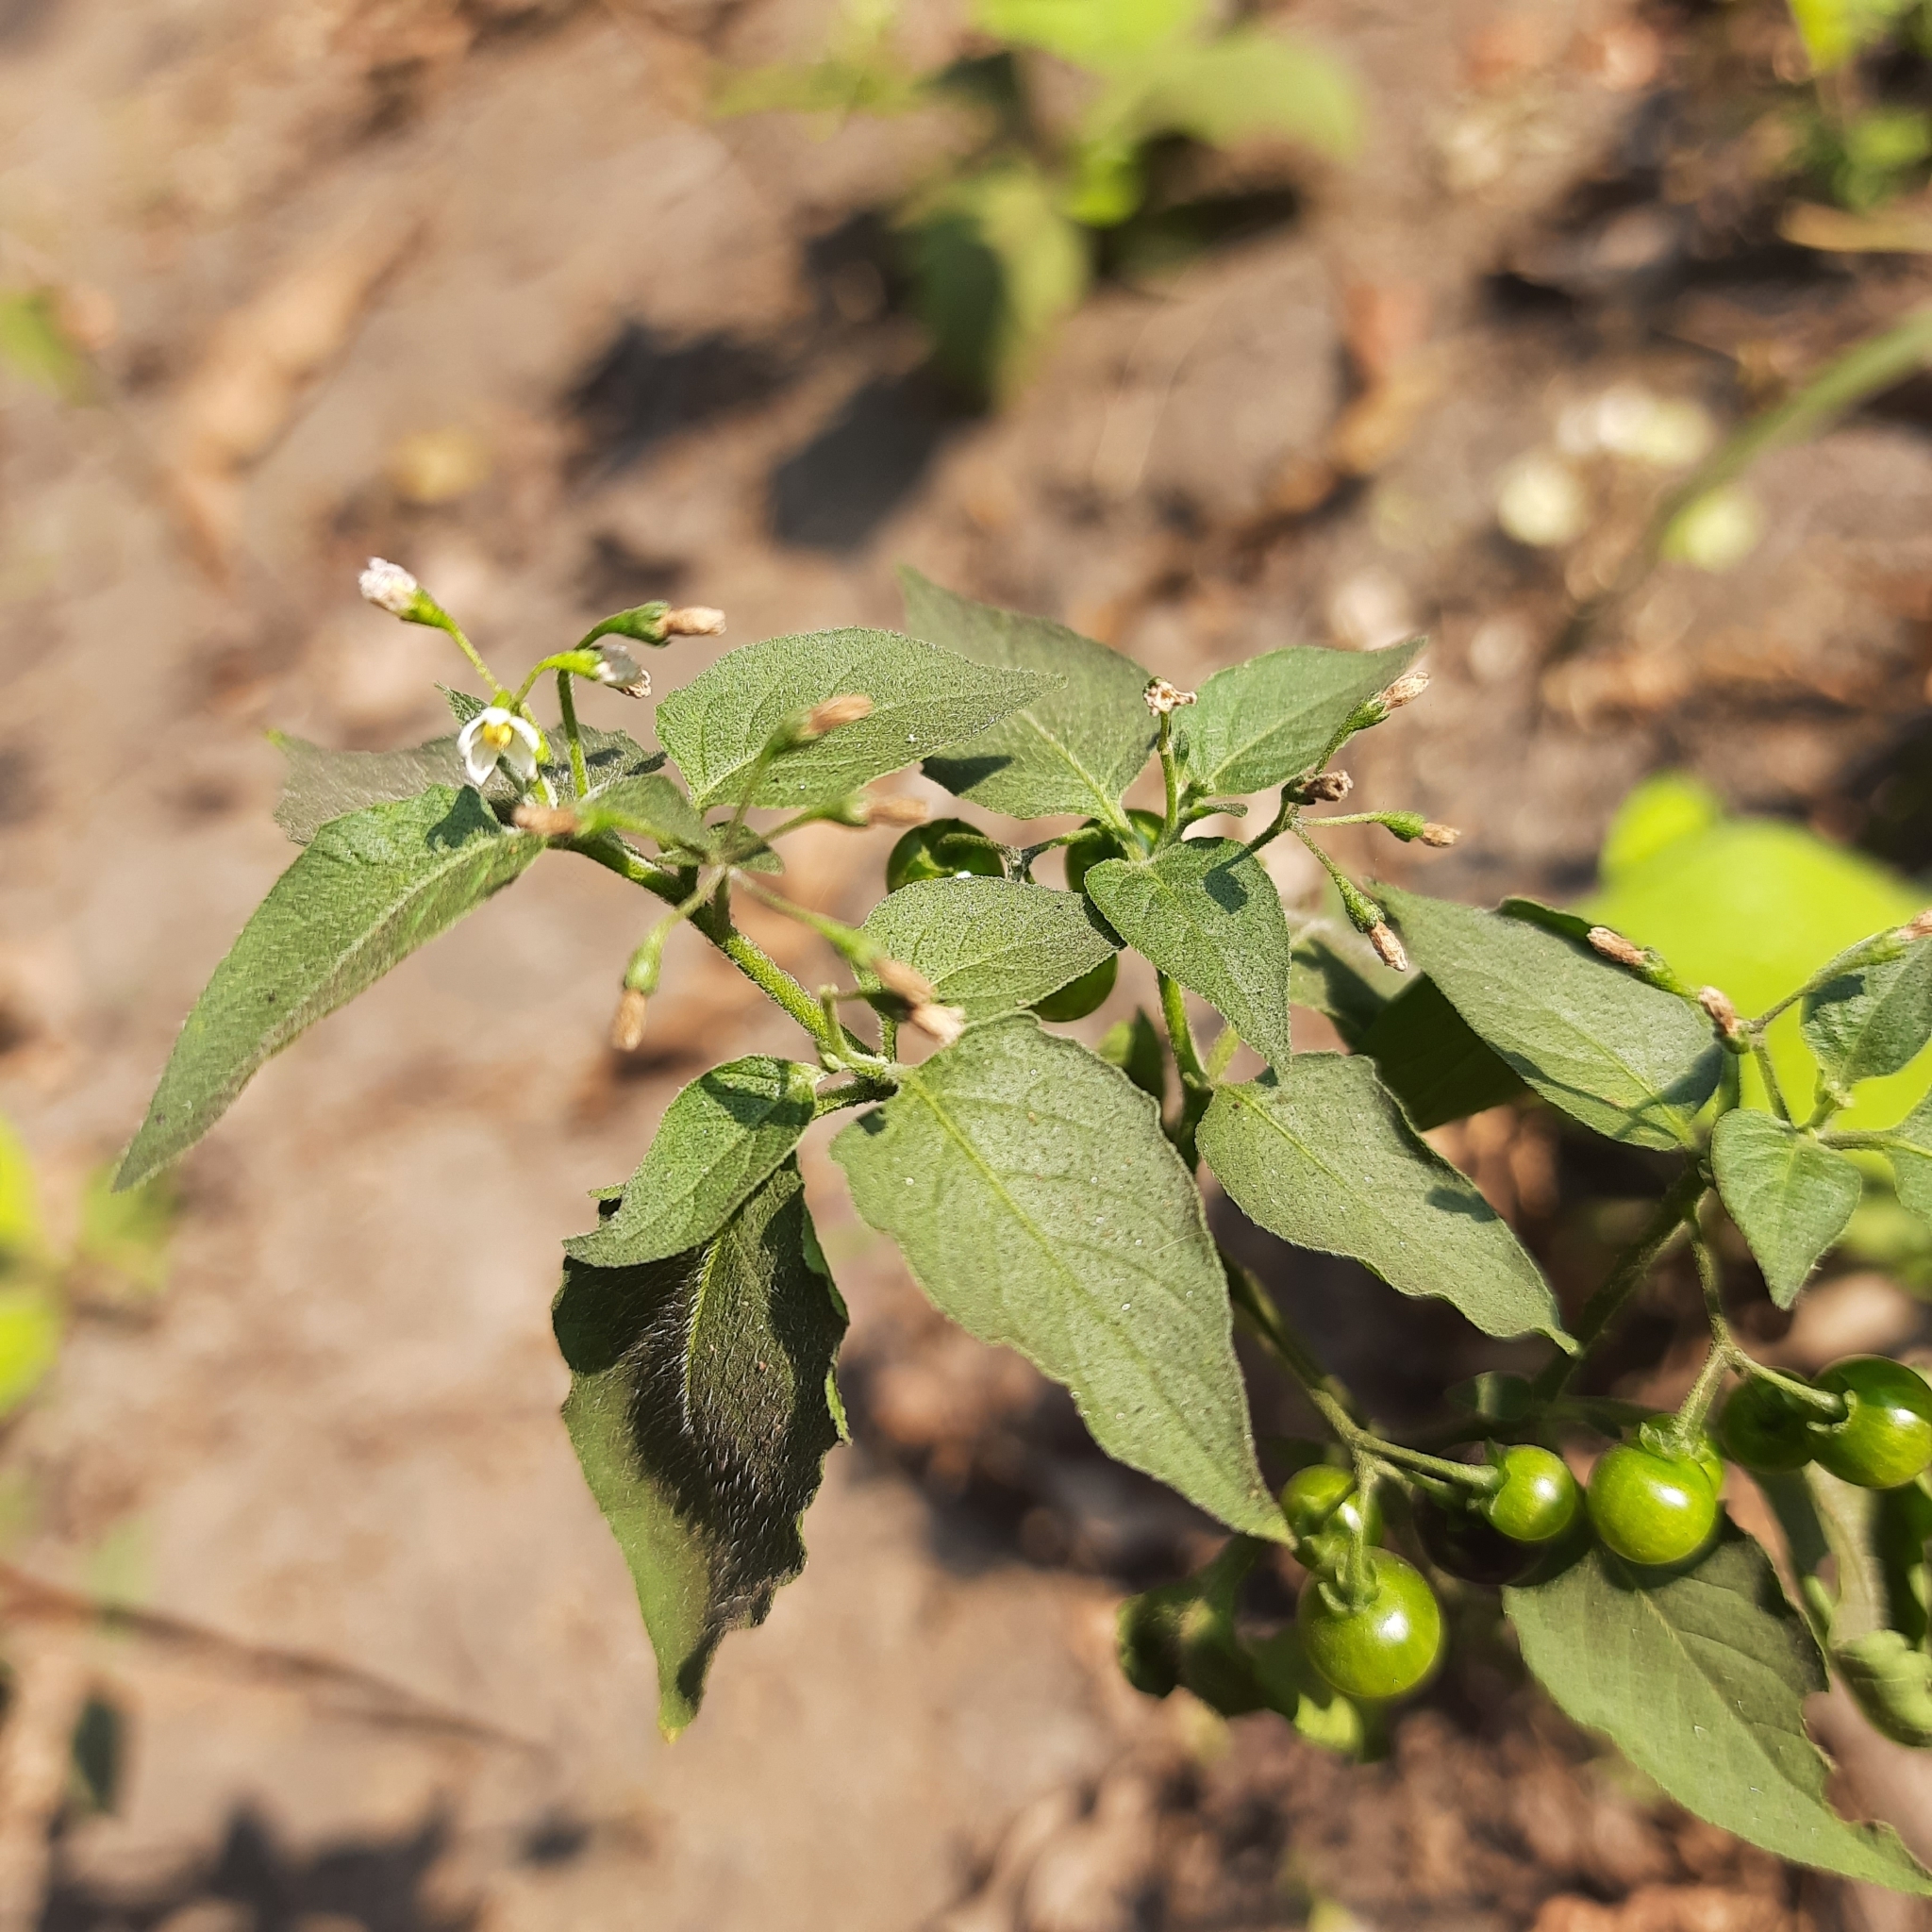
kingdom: Plantae
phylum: Tracheophyta
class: Magnoliopsida
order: Solanales
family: Solanaceae
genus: Solanum
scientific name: Solanum americanum
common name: American black nightshade
